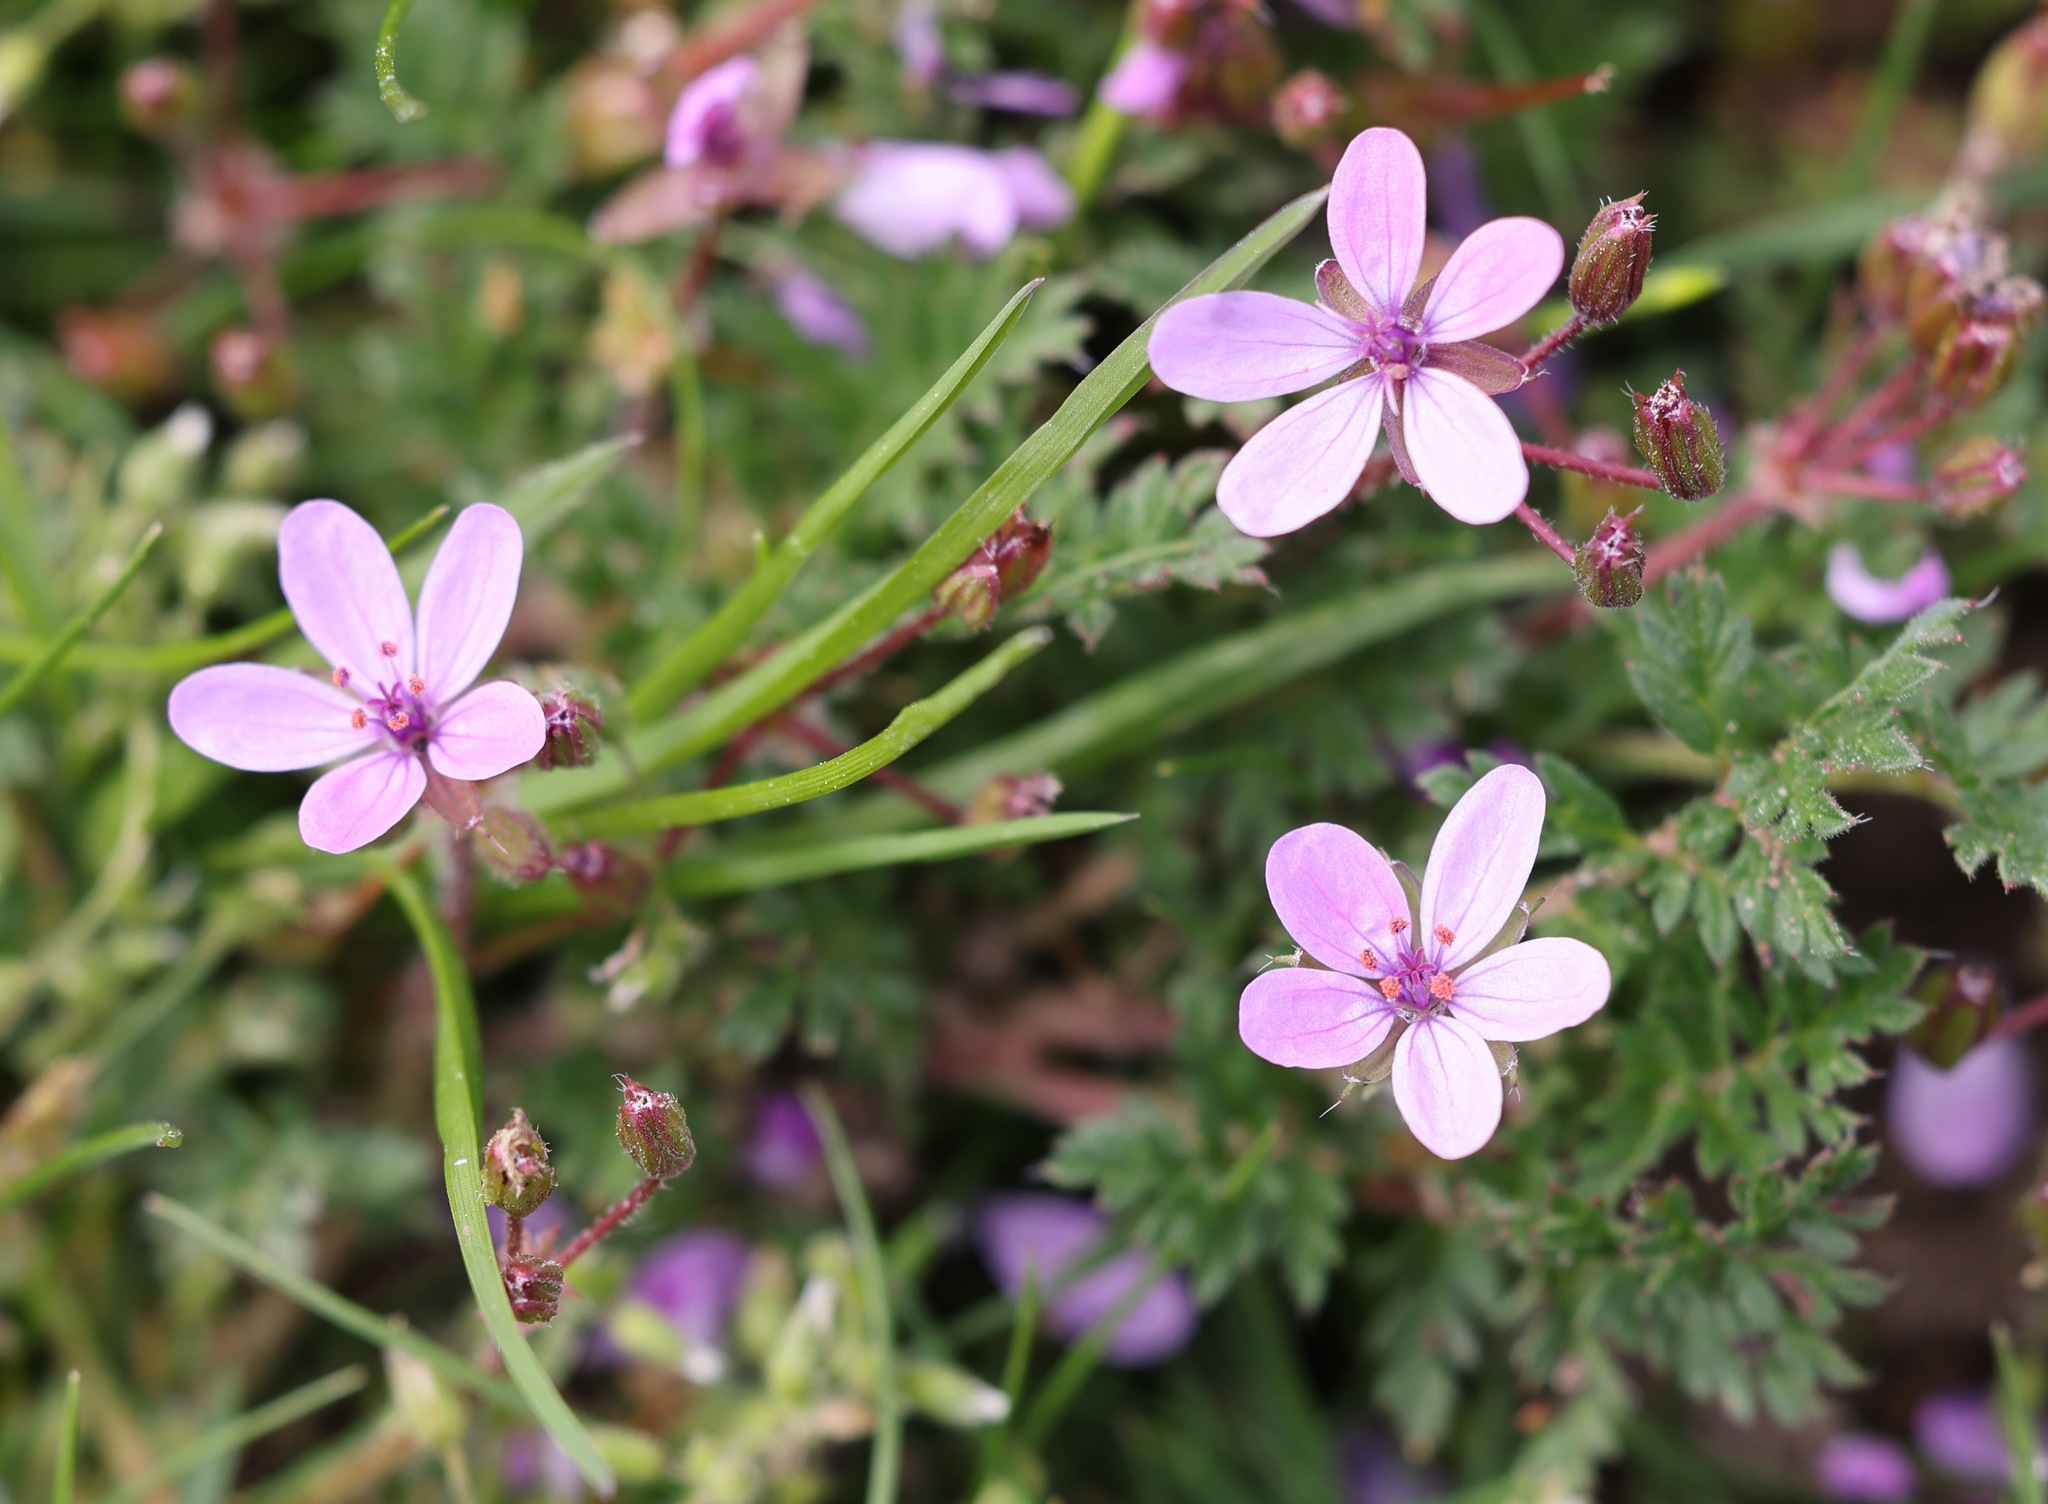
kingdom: Plantae
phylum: Tracheophyta
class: Magnoliopsida
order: Geraniales
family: Geraniaceae
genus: Erodium
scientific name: Erodium cicutarium
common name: Common stork's-bill
